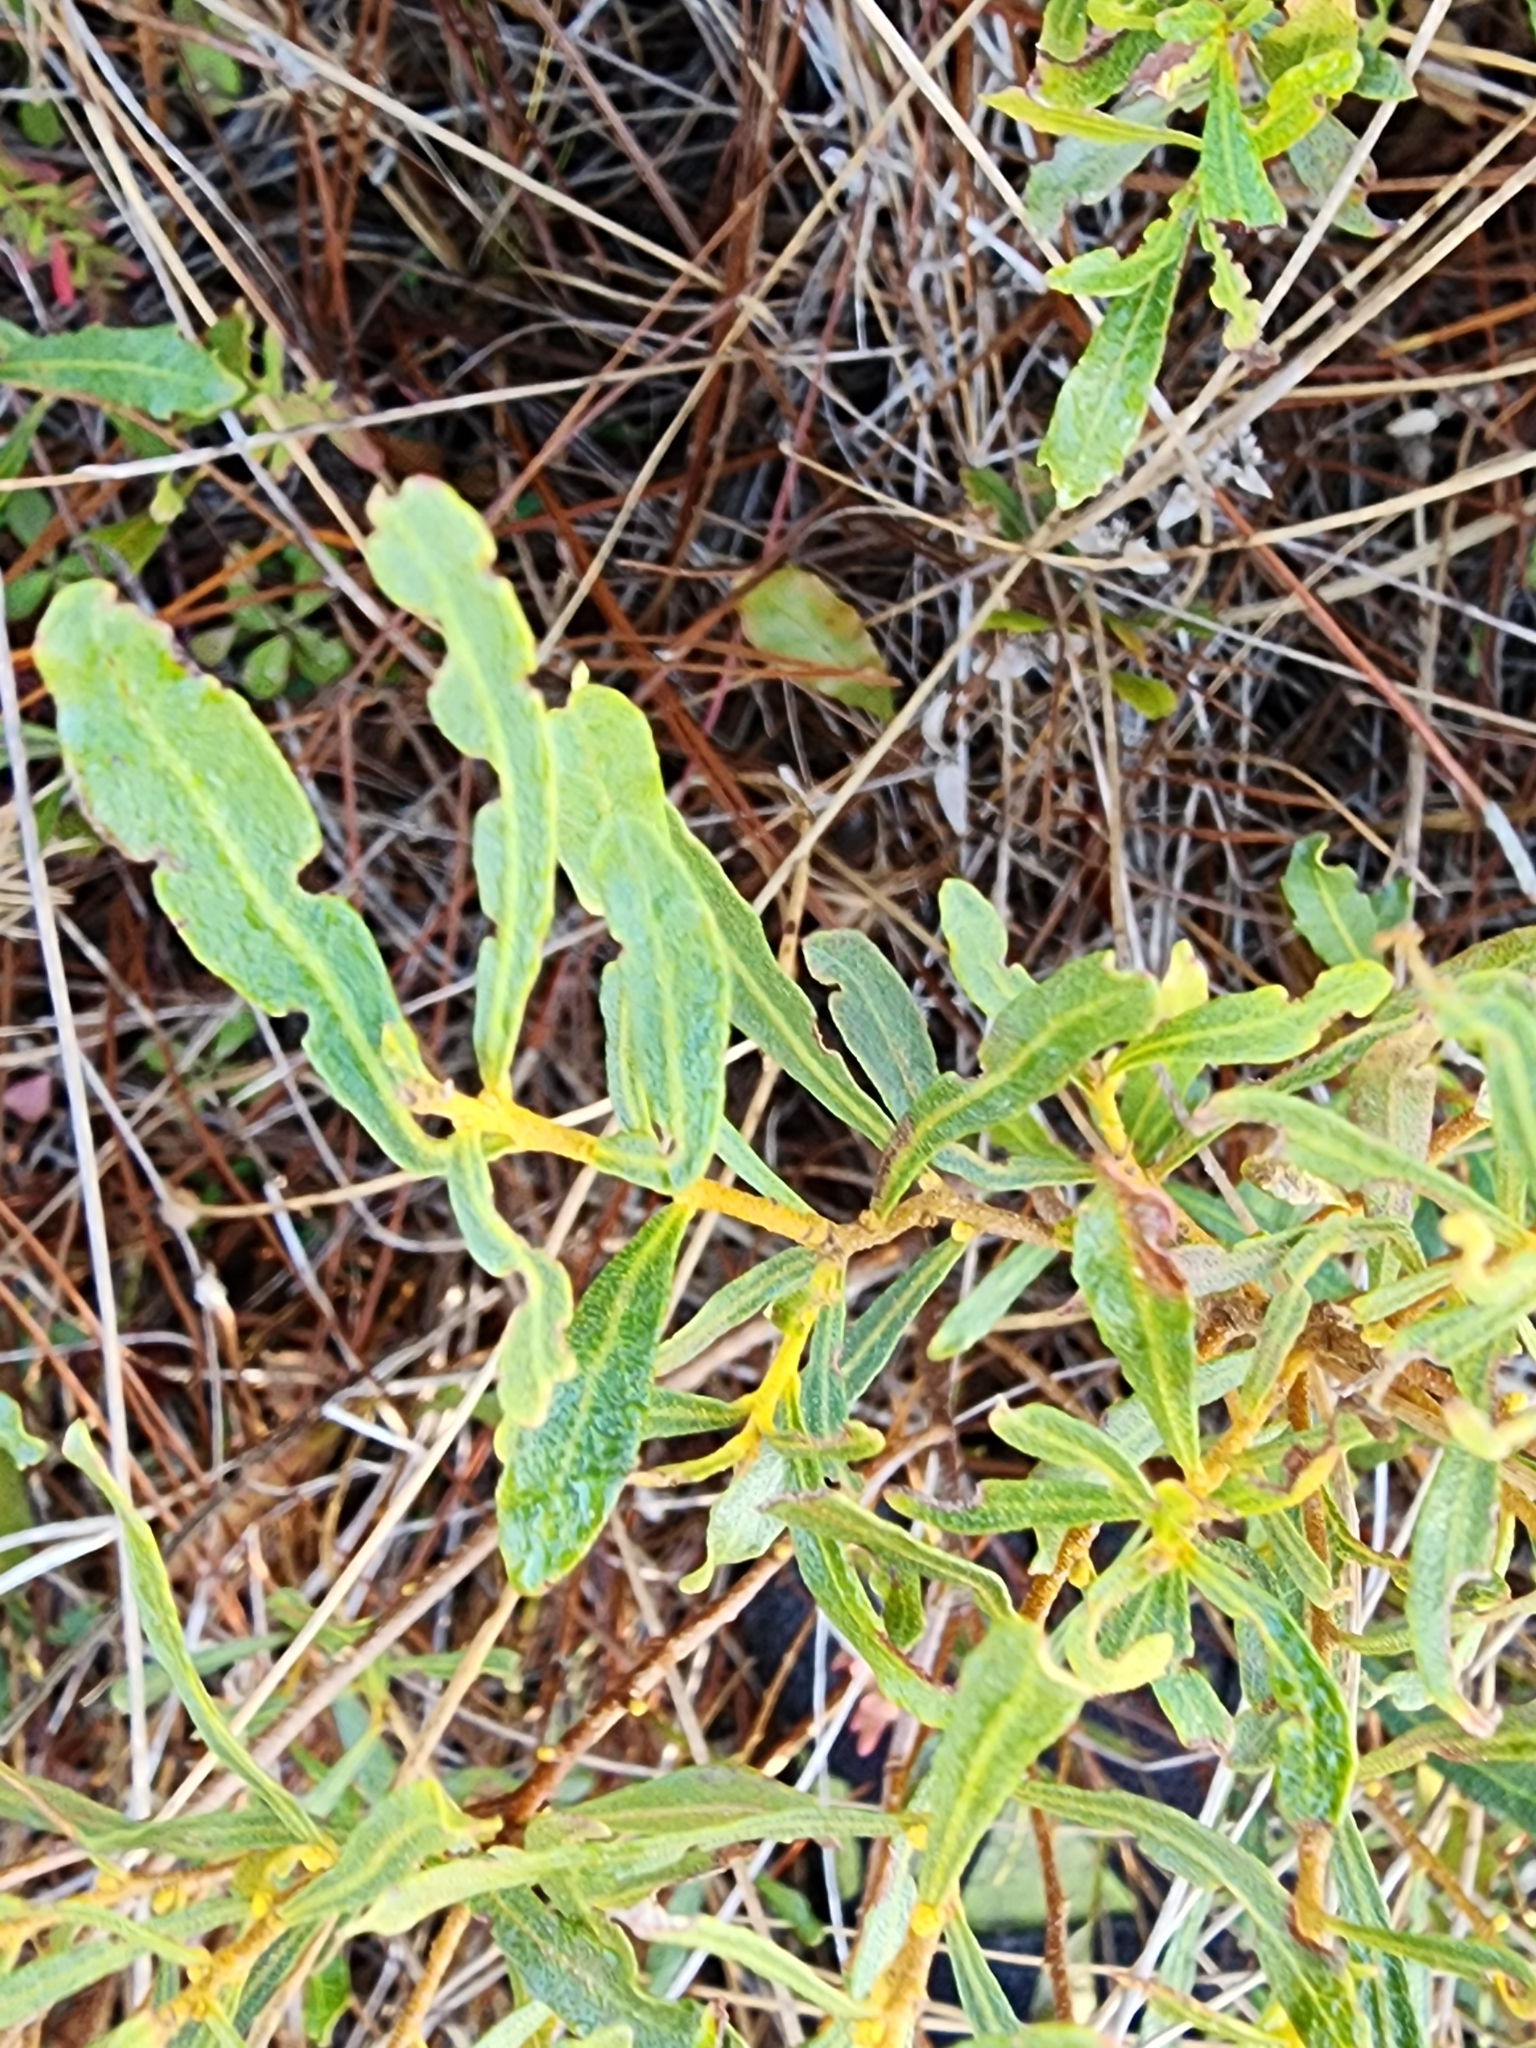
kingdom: Plantae
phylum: Tracheophyta
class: Magnoliopsida
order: Fagales
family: Myricaceae
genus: Morella
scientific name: Morella cerifera
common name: Wax myrtle
